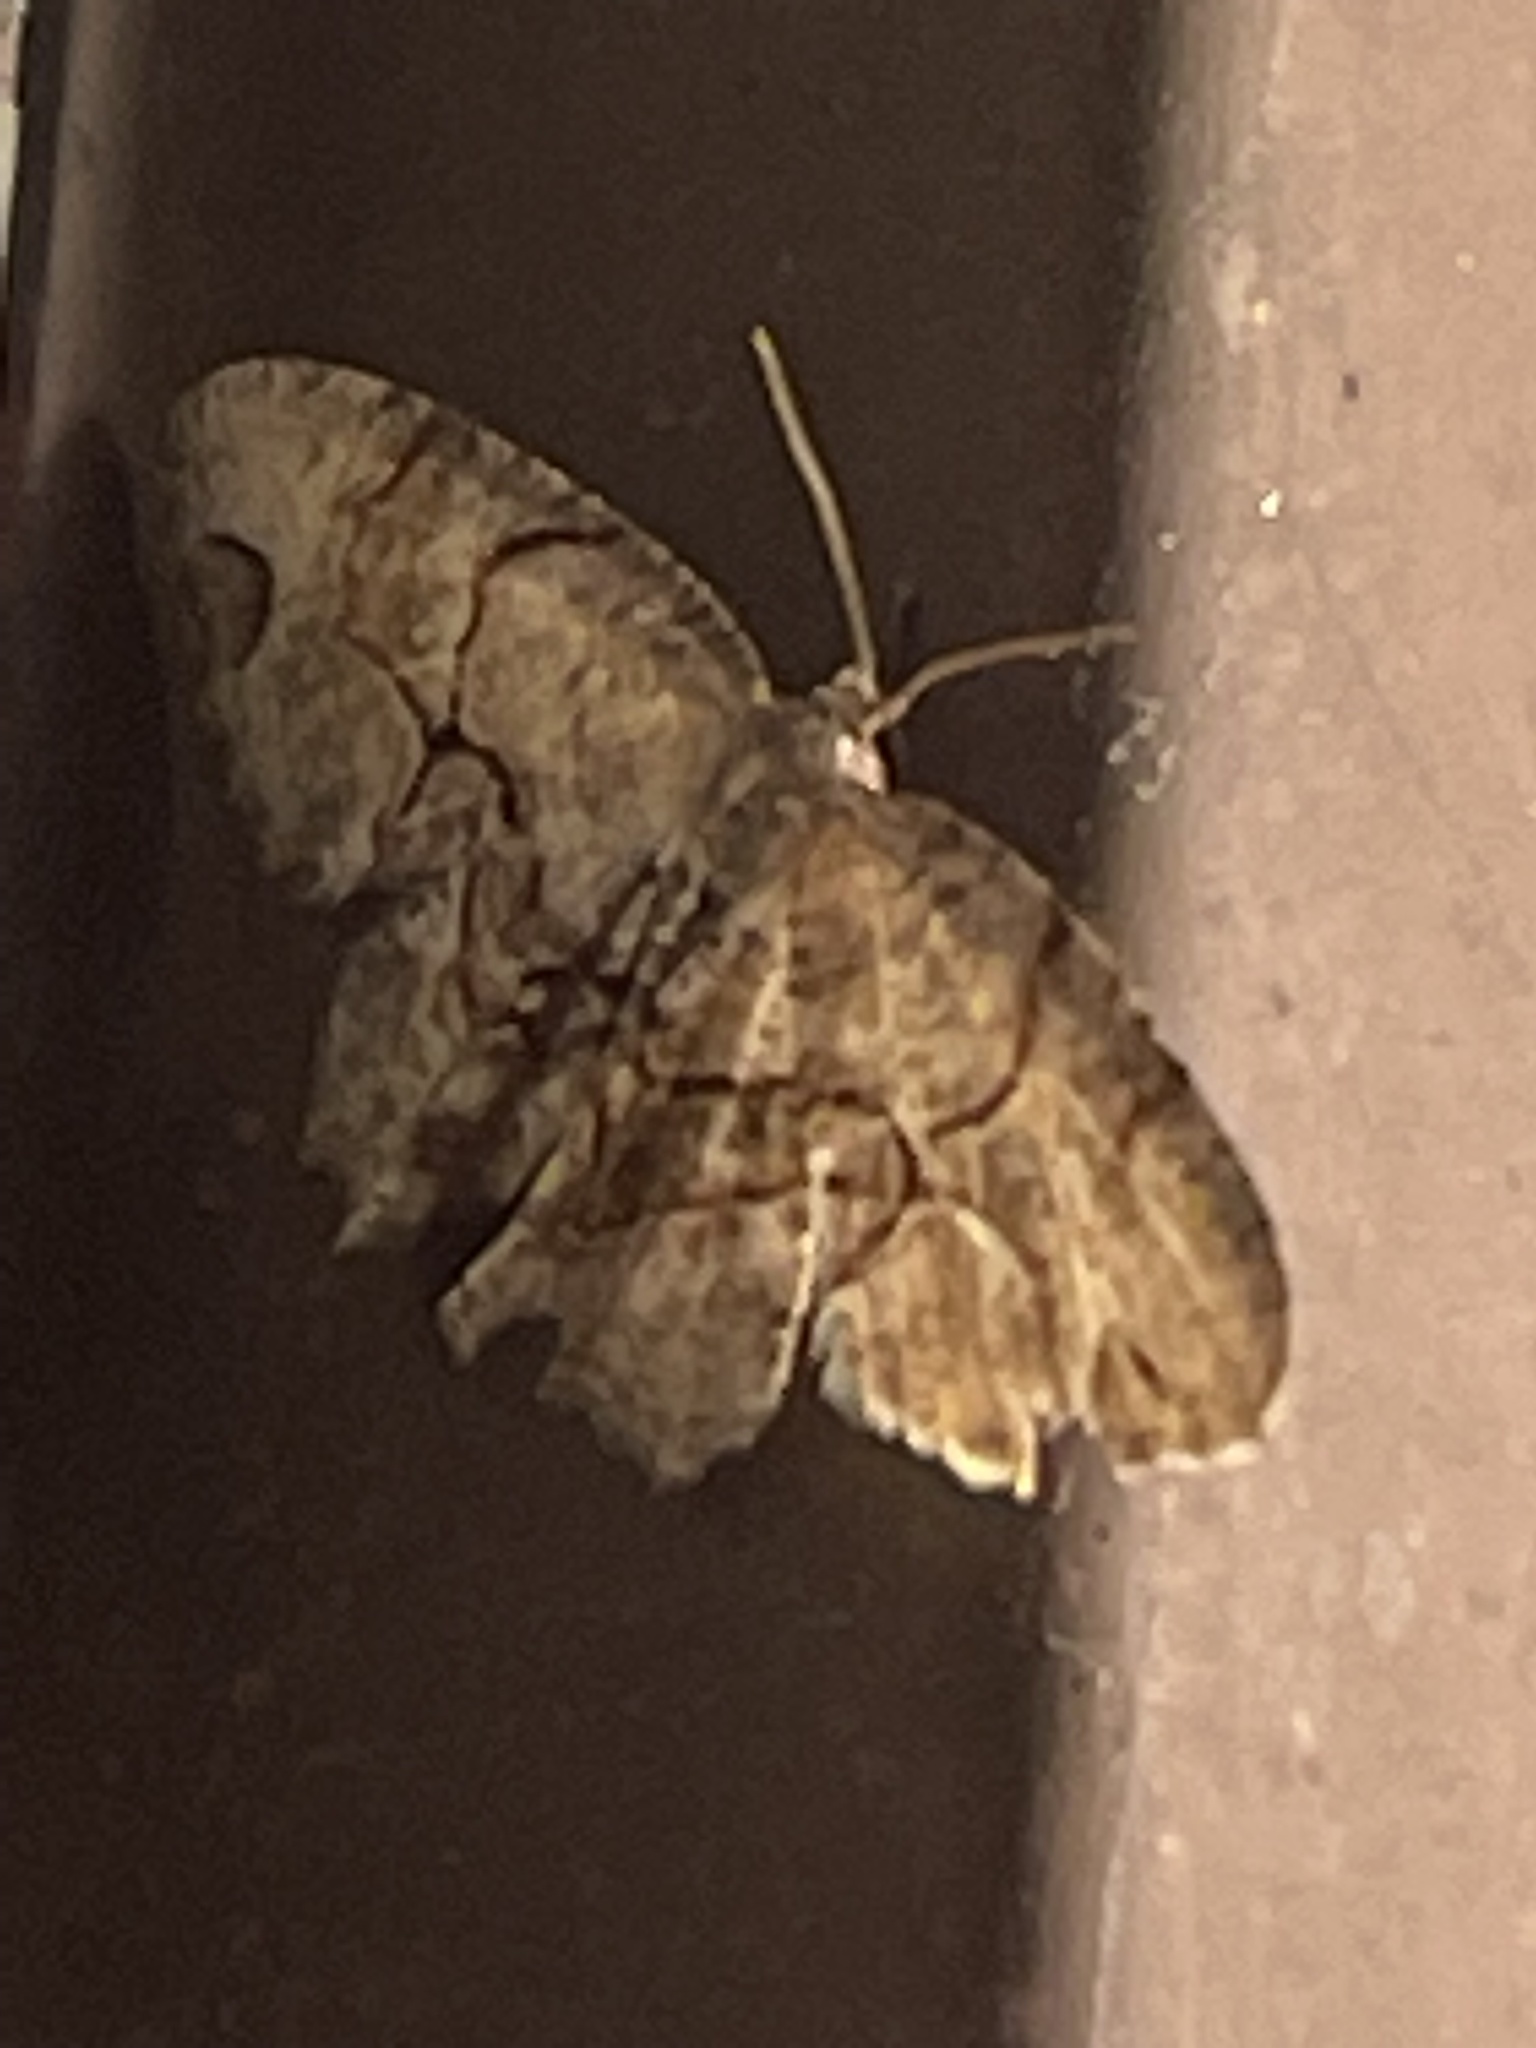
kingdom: Animalia
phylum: Arthropoda
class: Insecta
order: Lepidoptera
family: Uraniidae
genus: Epiplema
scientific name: Epiplema Callizzia amorata
